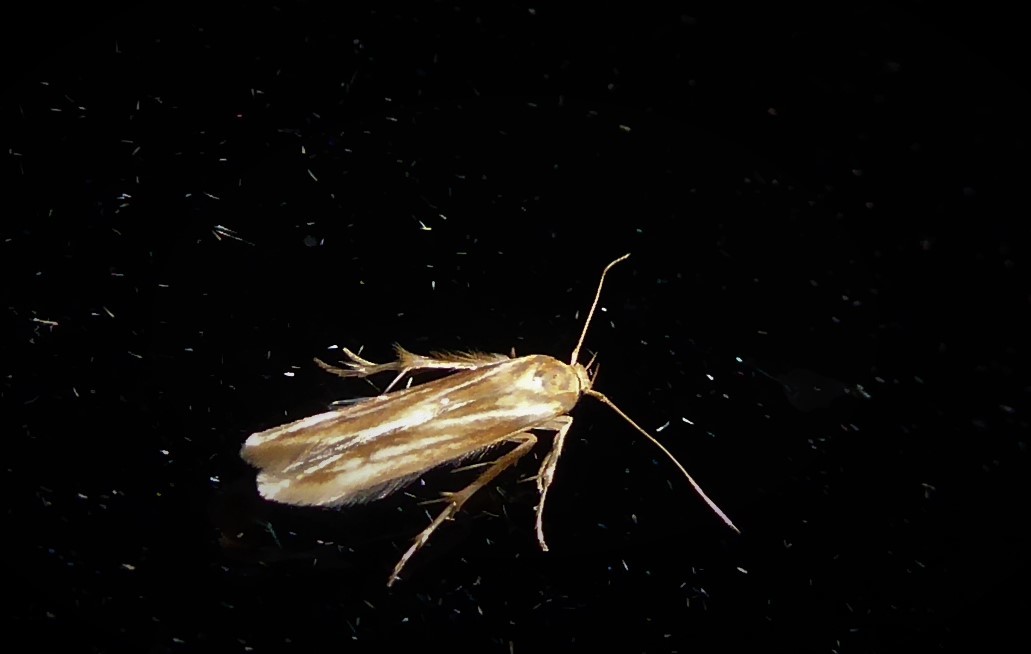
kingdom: Animalia
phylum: Arthropoda
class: Insecta
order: Lepidoptera
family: Stathmopodidae
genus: Stathmopoda
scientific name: Stathmopoda aposema
